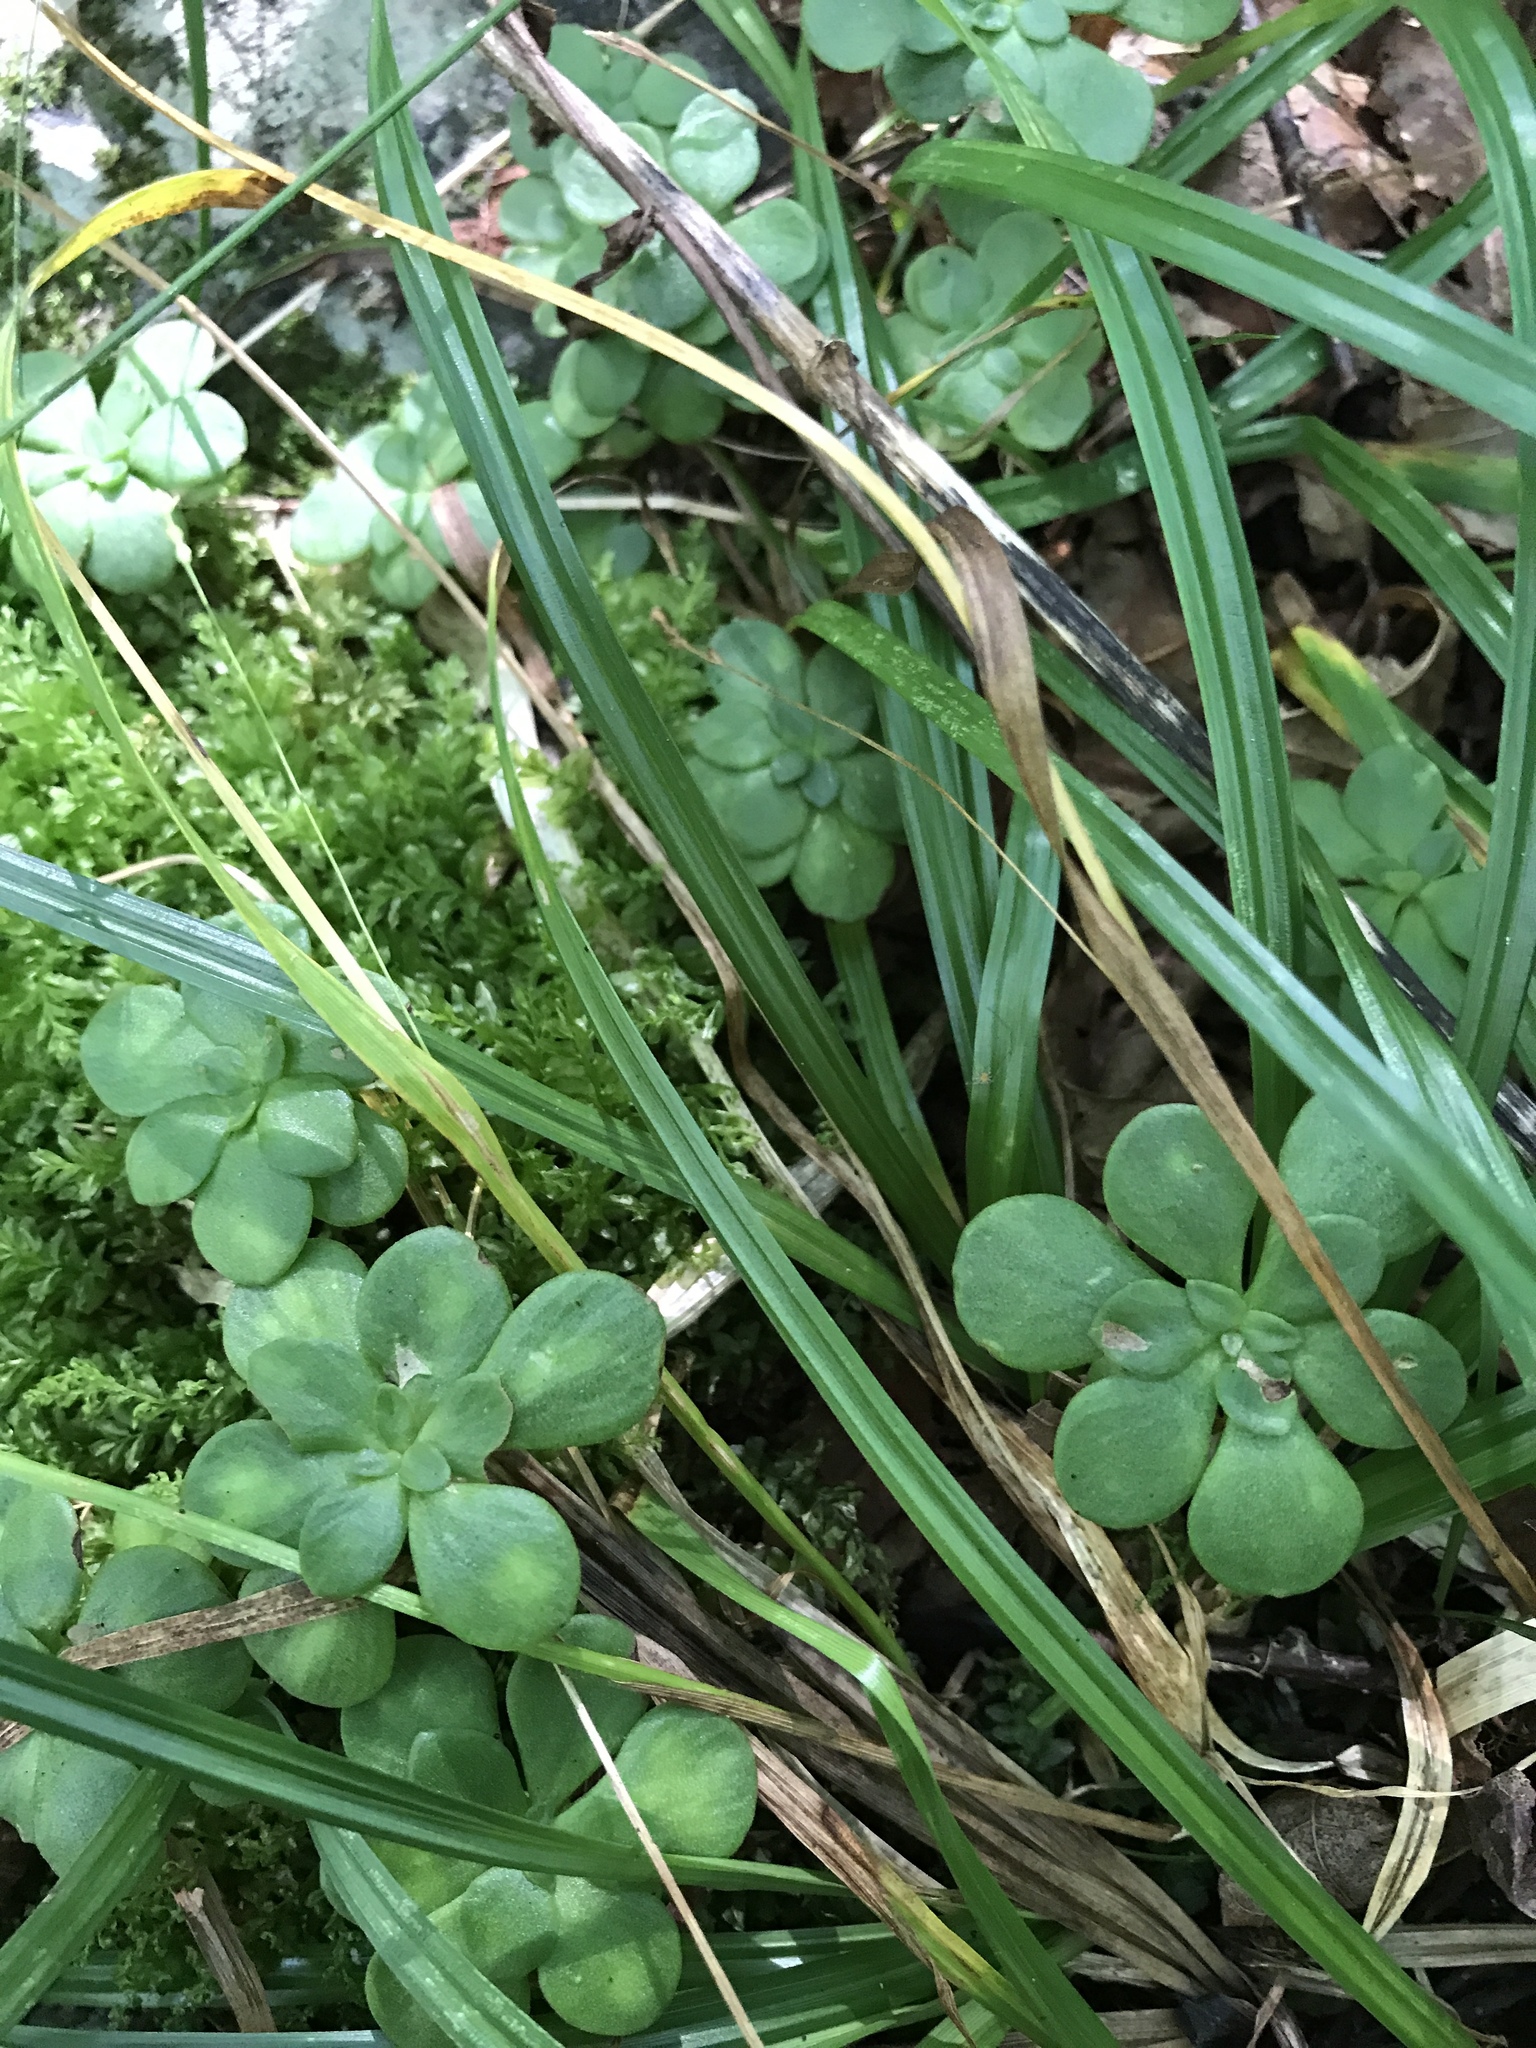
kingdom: Plantae
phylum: Tracheophyta
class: Magnoliopsida
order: Saxifragales
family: Crassulaceae
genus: Sedum
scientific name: Sedum ternatum
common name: Wild stonecrop
